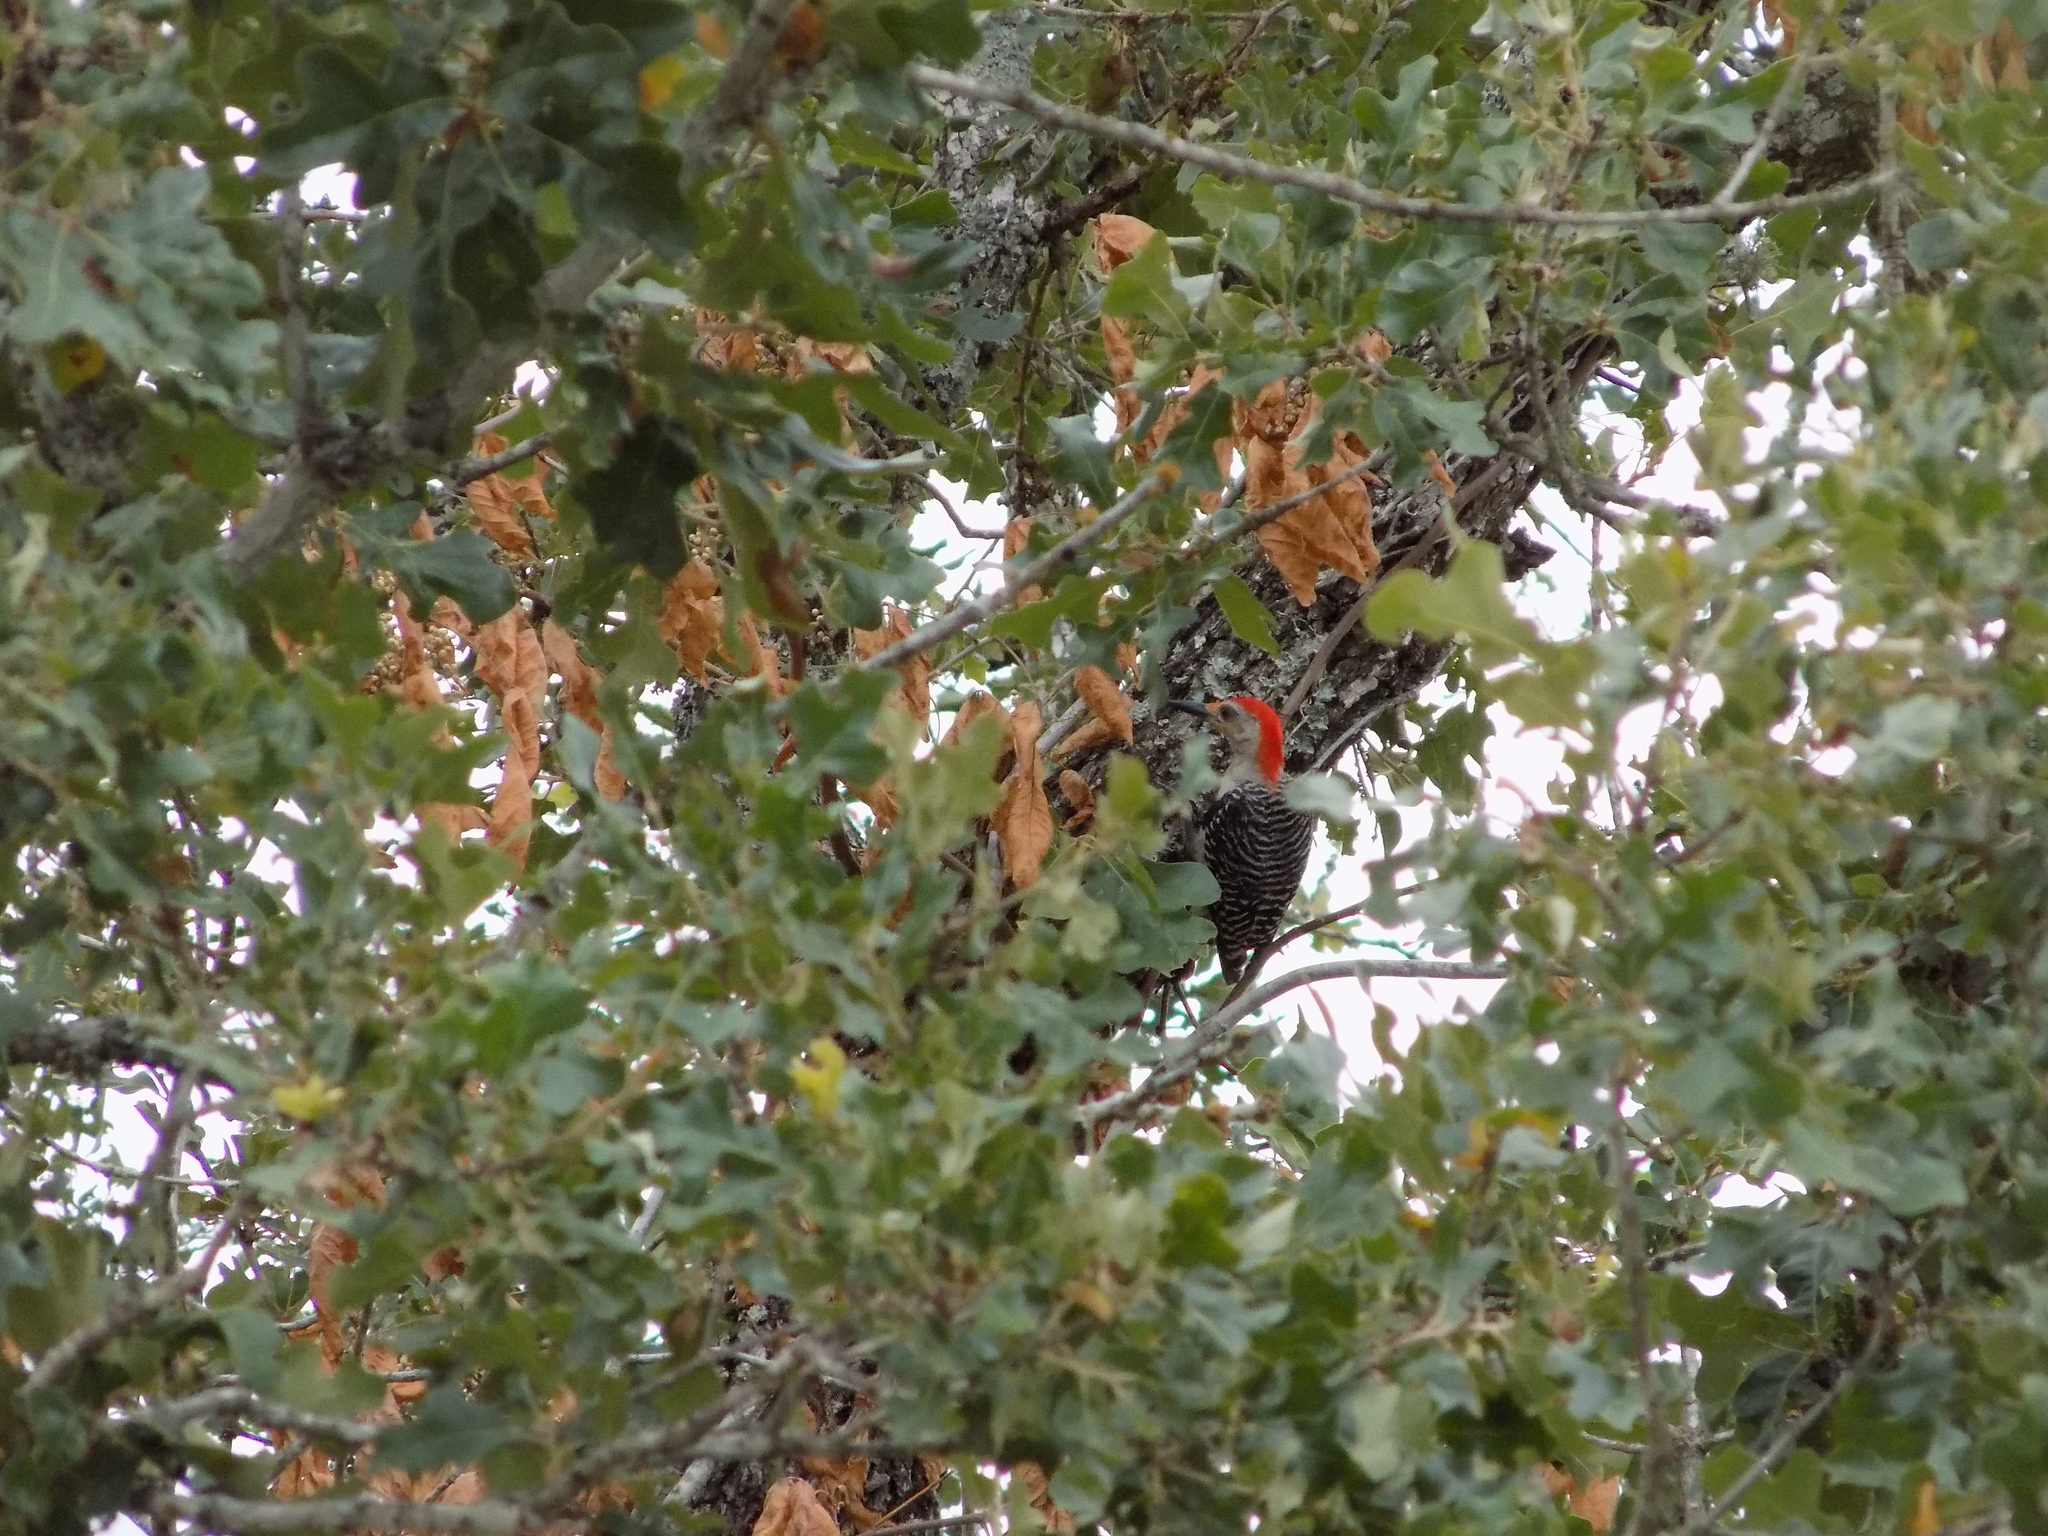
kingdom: Animalia
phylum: Chordata
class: Aves
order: Piciformes
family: Picidae
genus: Melanerpes
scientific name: Melanerpes carolinus
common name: Red-bellied woodpecker
